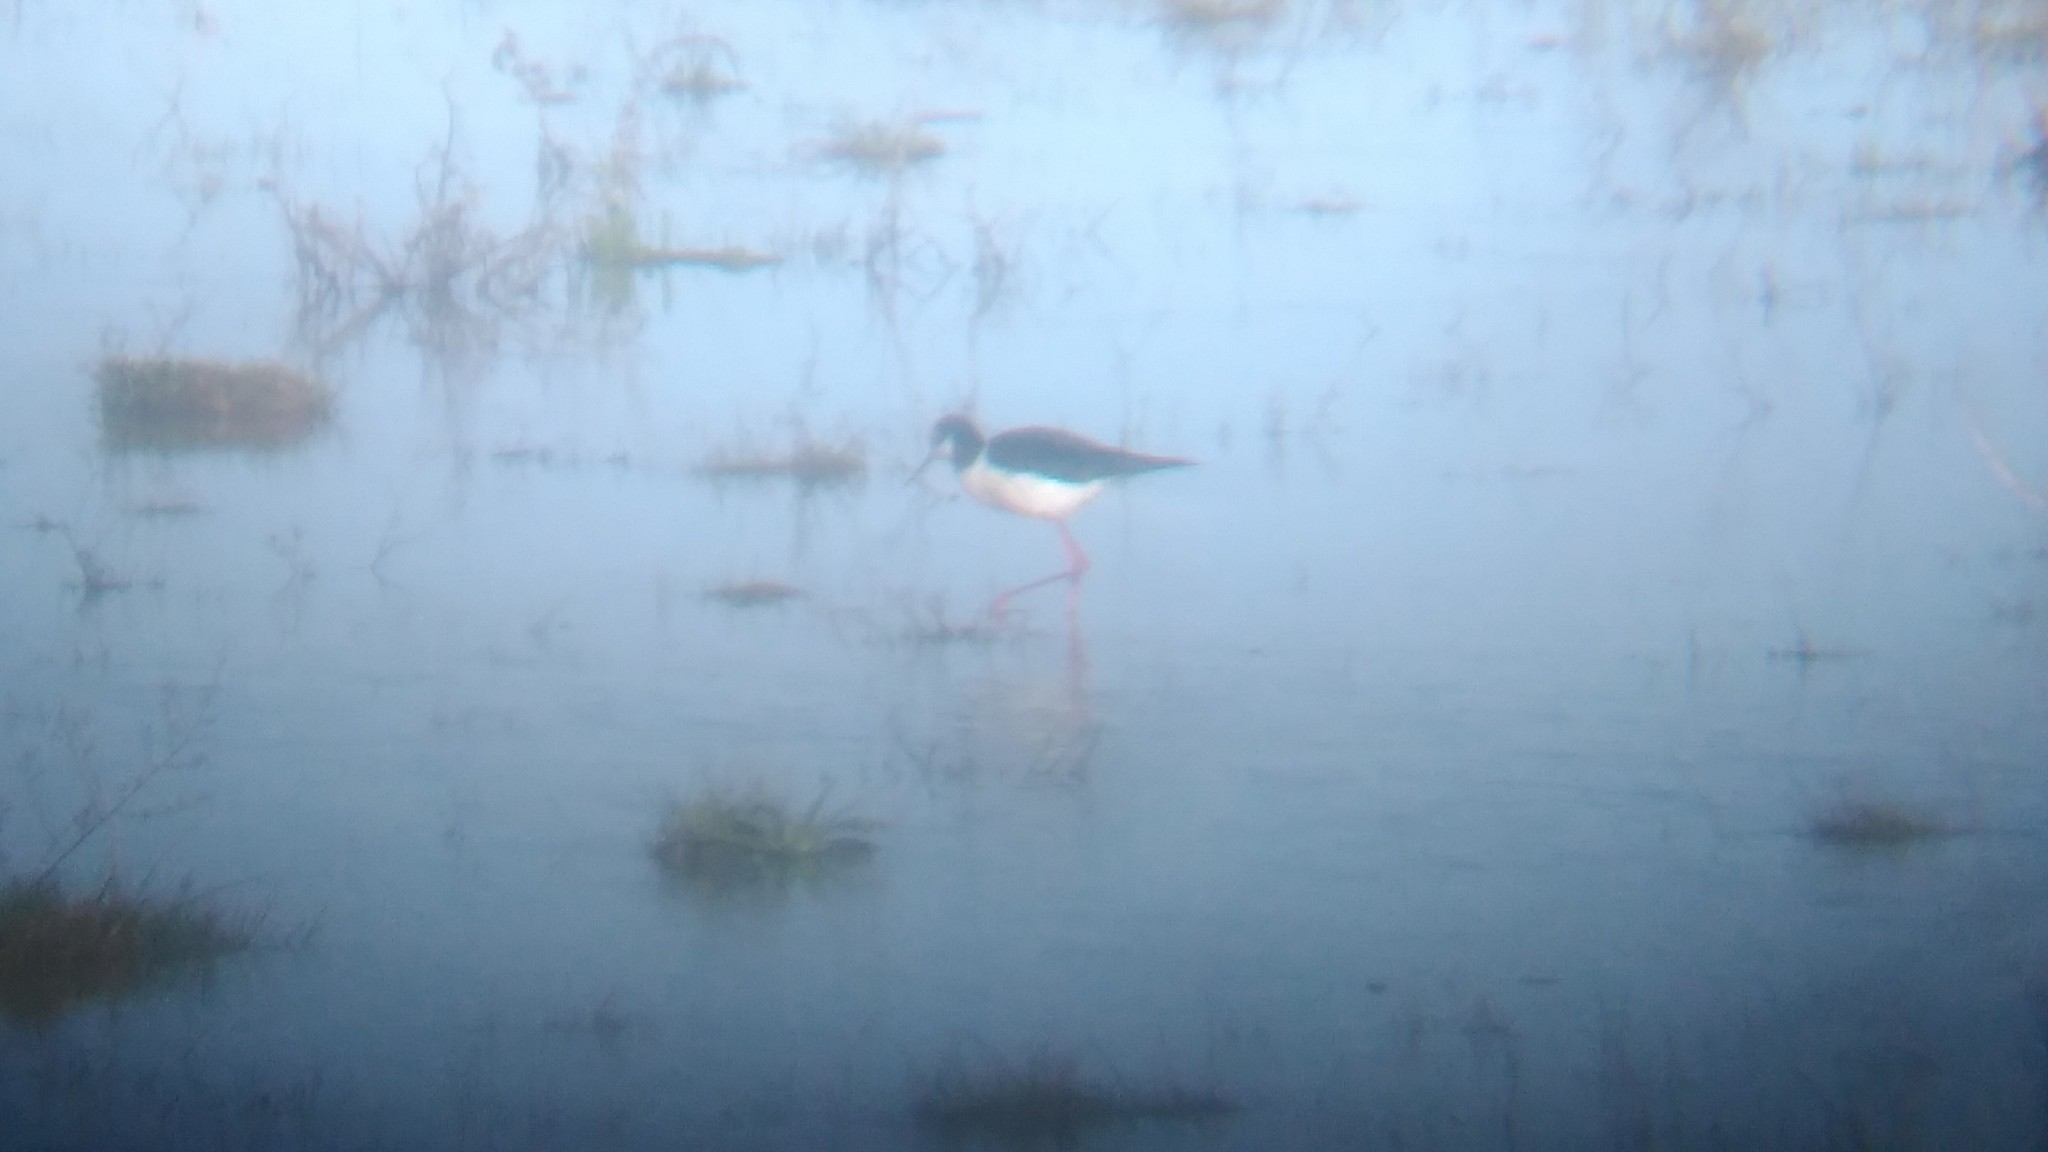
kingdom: Animalia
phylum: Chordata
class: Aves
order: Charadriiformes
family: Recurvirostridae
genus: Himantopus
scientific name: Himantopus mexicanus
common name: Black-necked stilt
